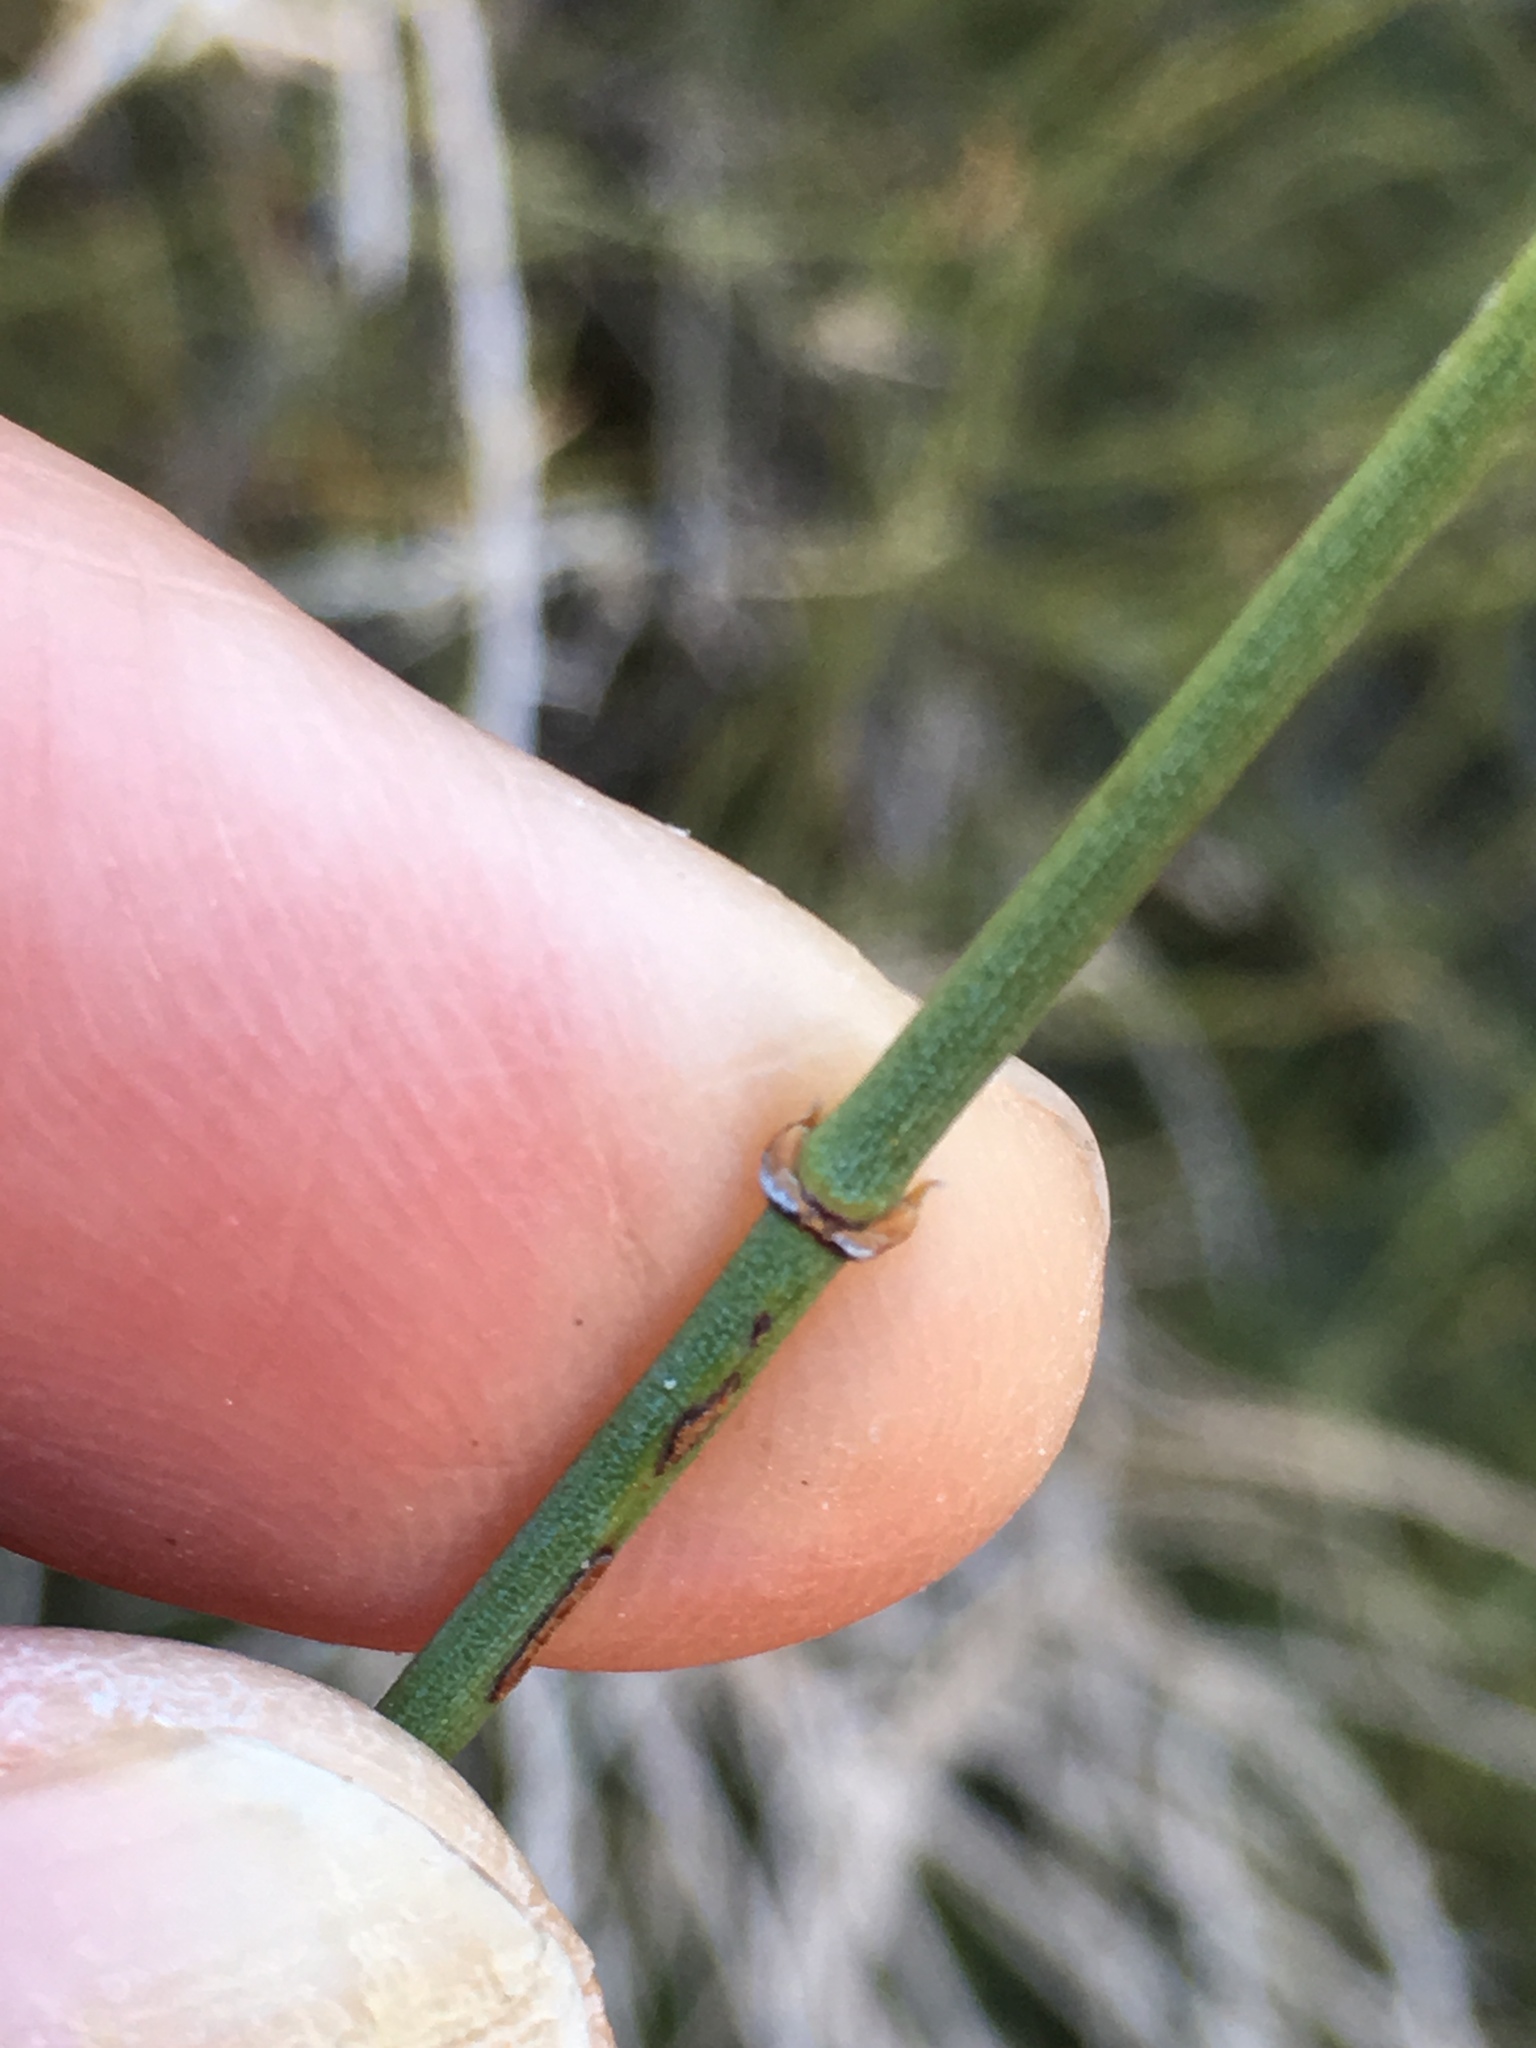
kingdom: Plantae
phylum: Tracheophyta
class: Gnetopsida
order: Ephedrales
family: Ephedraceae
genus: Ephedra
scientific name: Ephedra aspera
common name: Boundary ephedra
